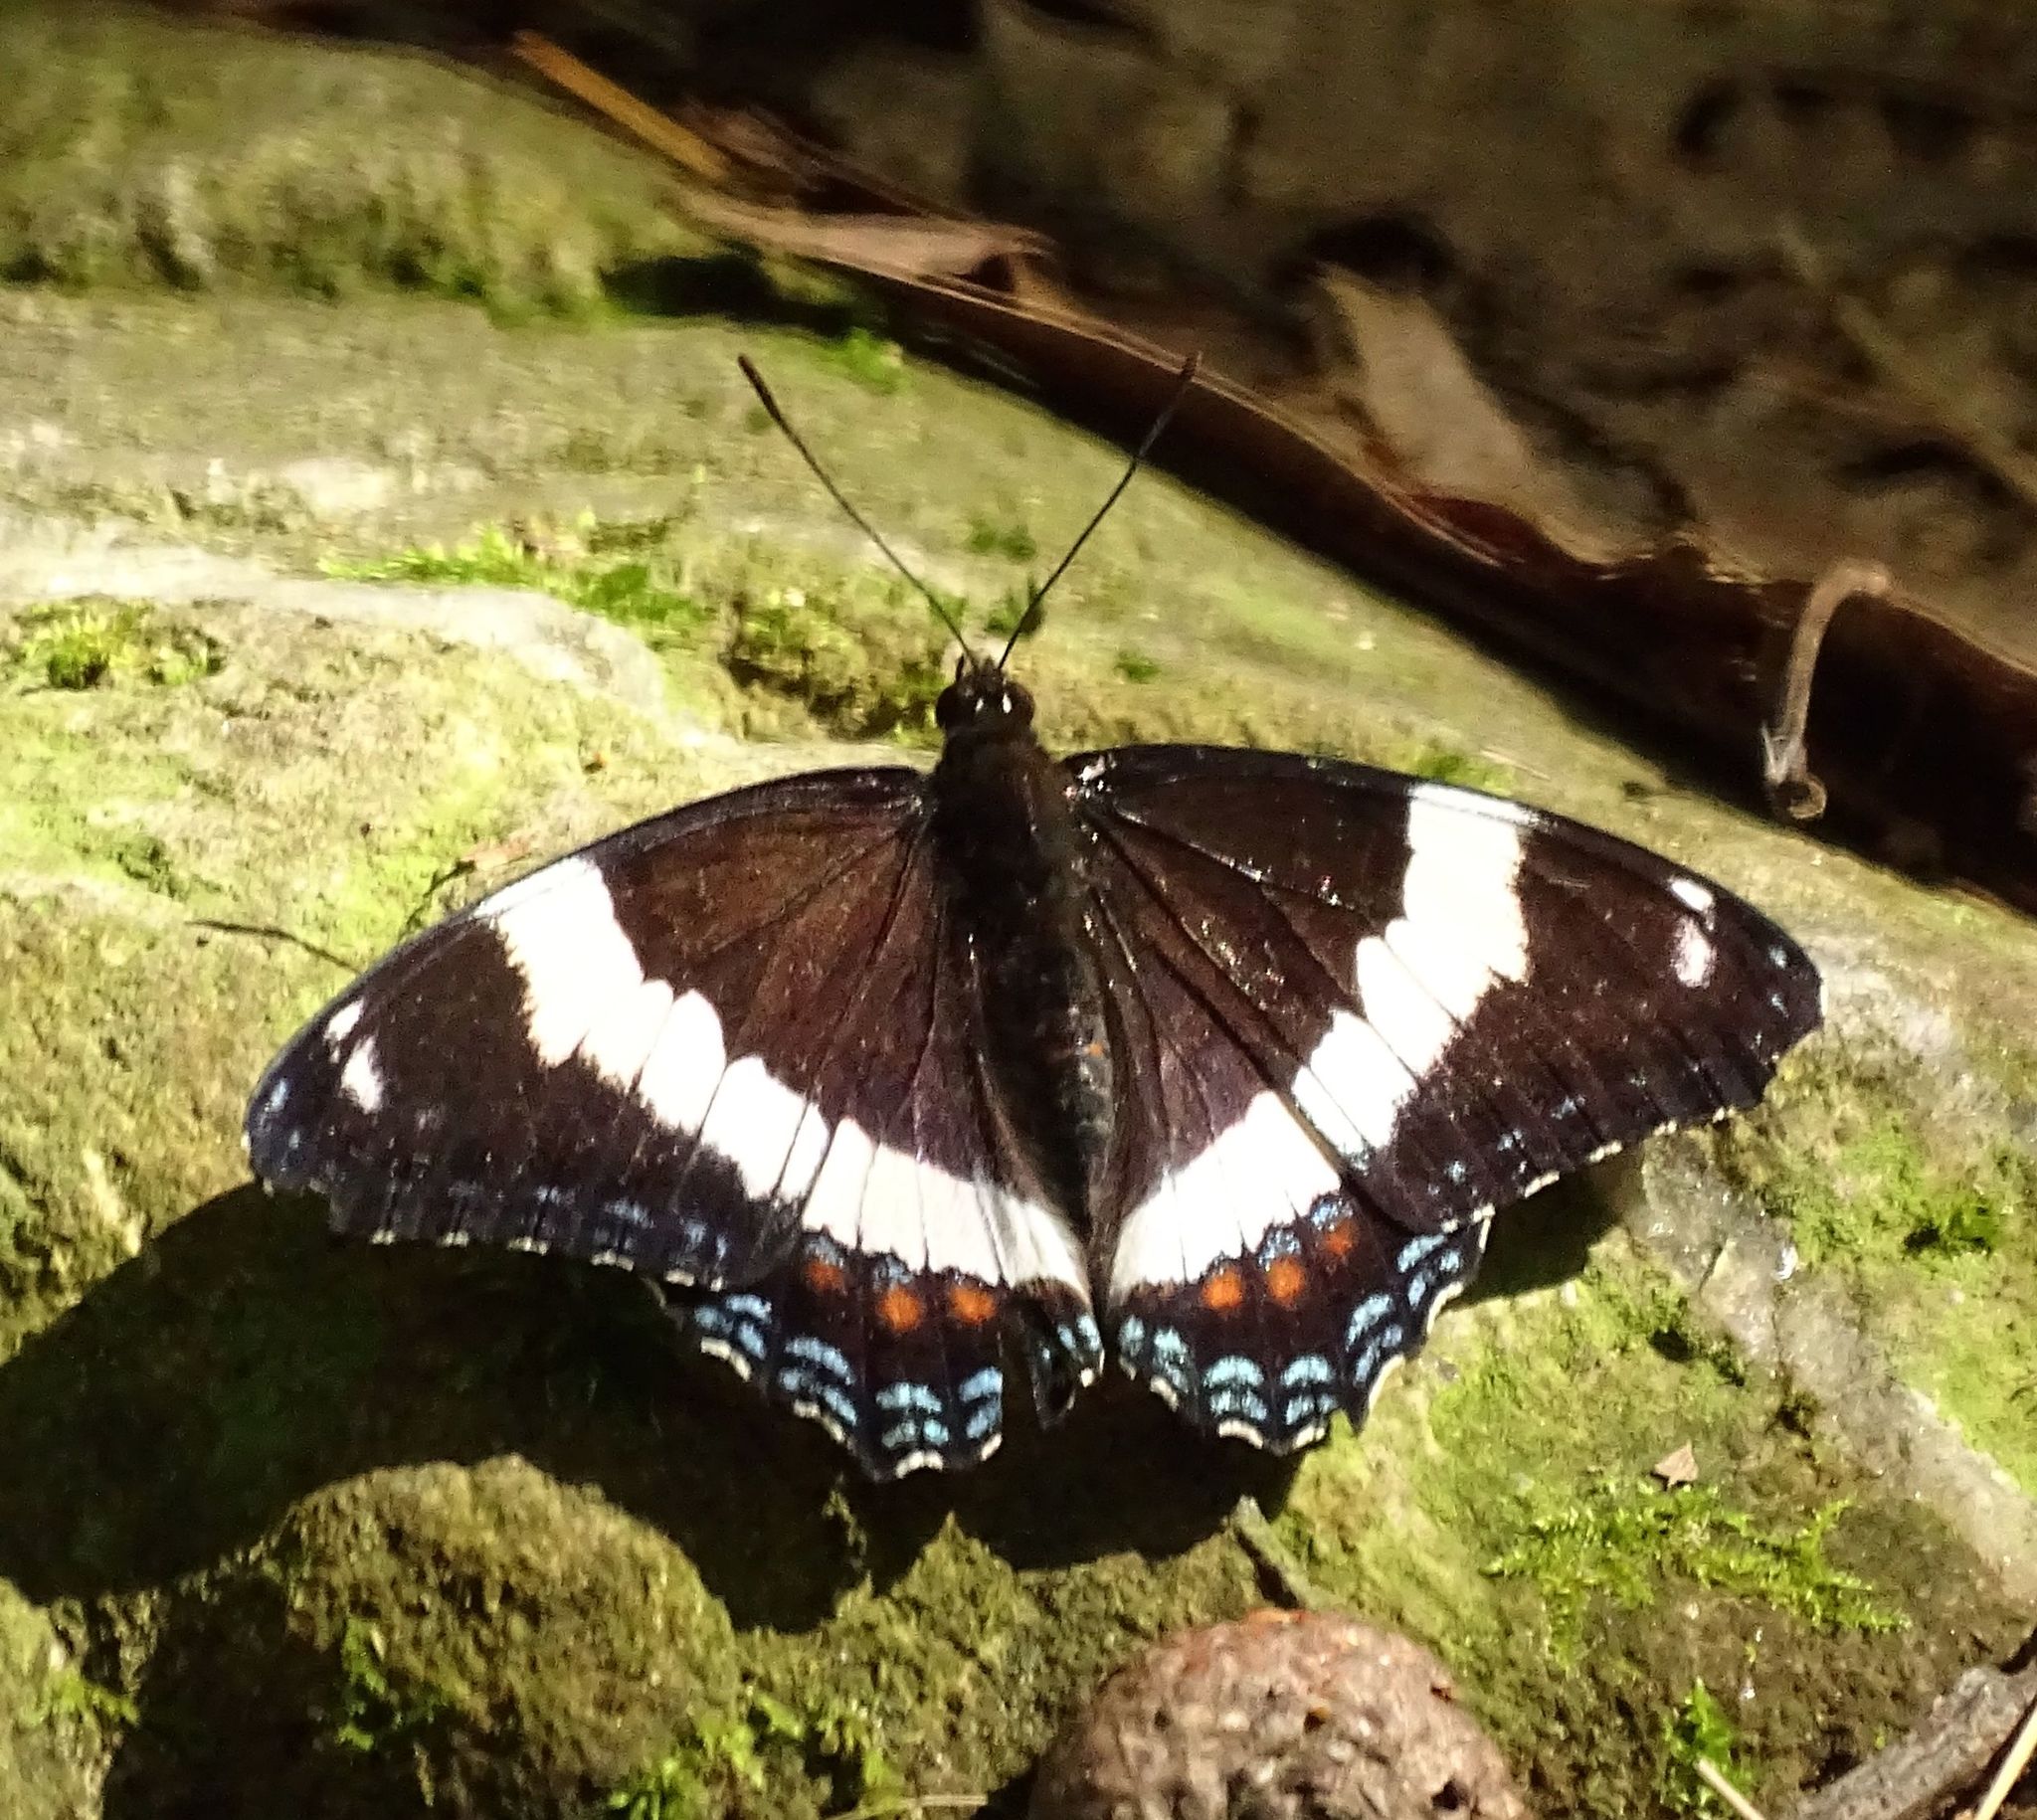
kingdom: Animalia
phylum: Arthropoda
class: Insecta
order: Lepidoptera
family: Nymphalidae
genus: Limenitis
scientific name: Limenitis arthemis
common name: Red-spotted admiral
